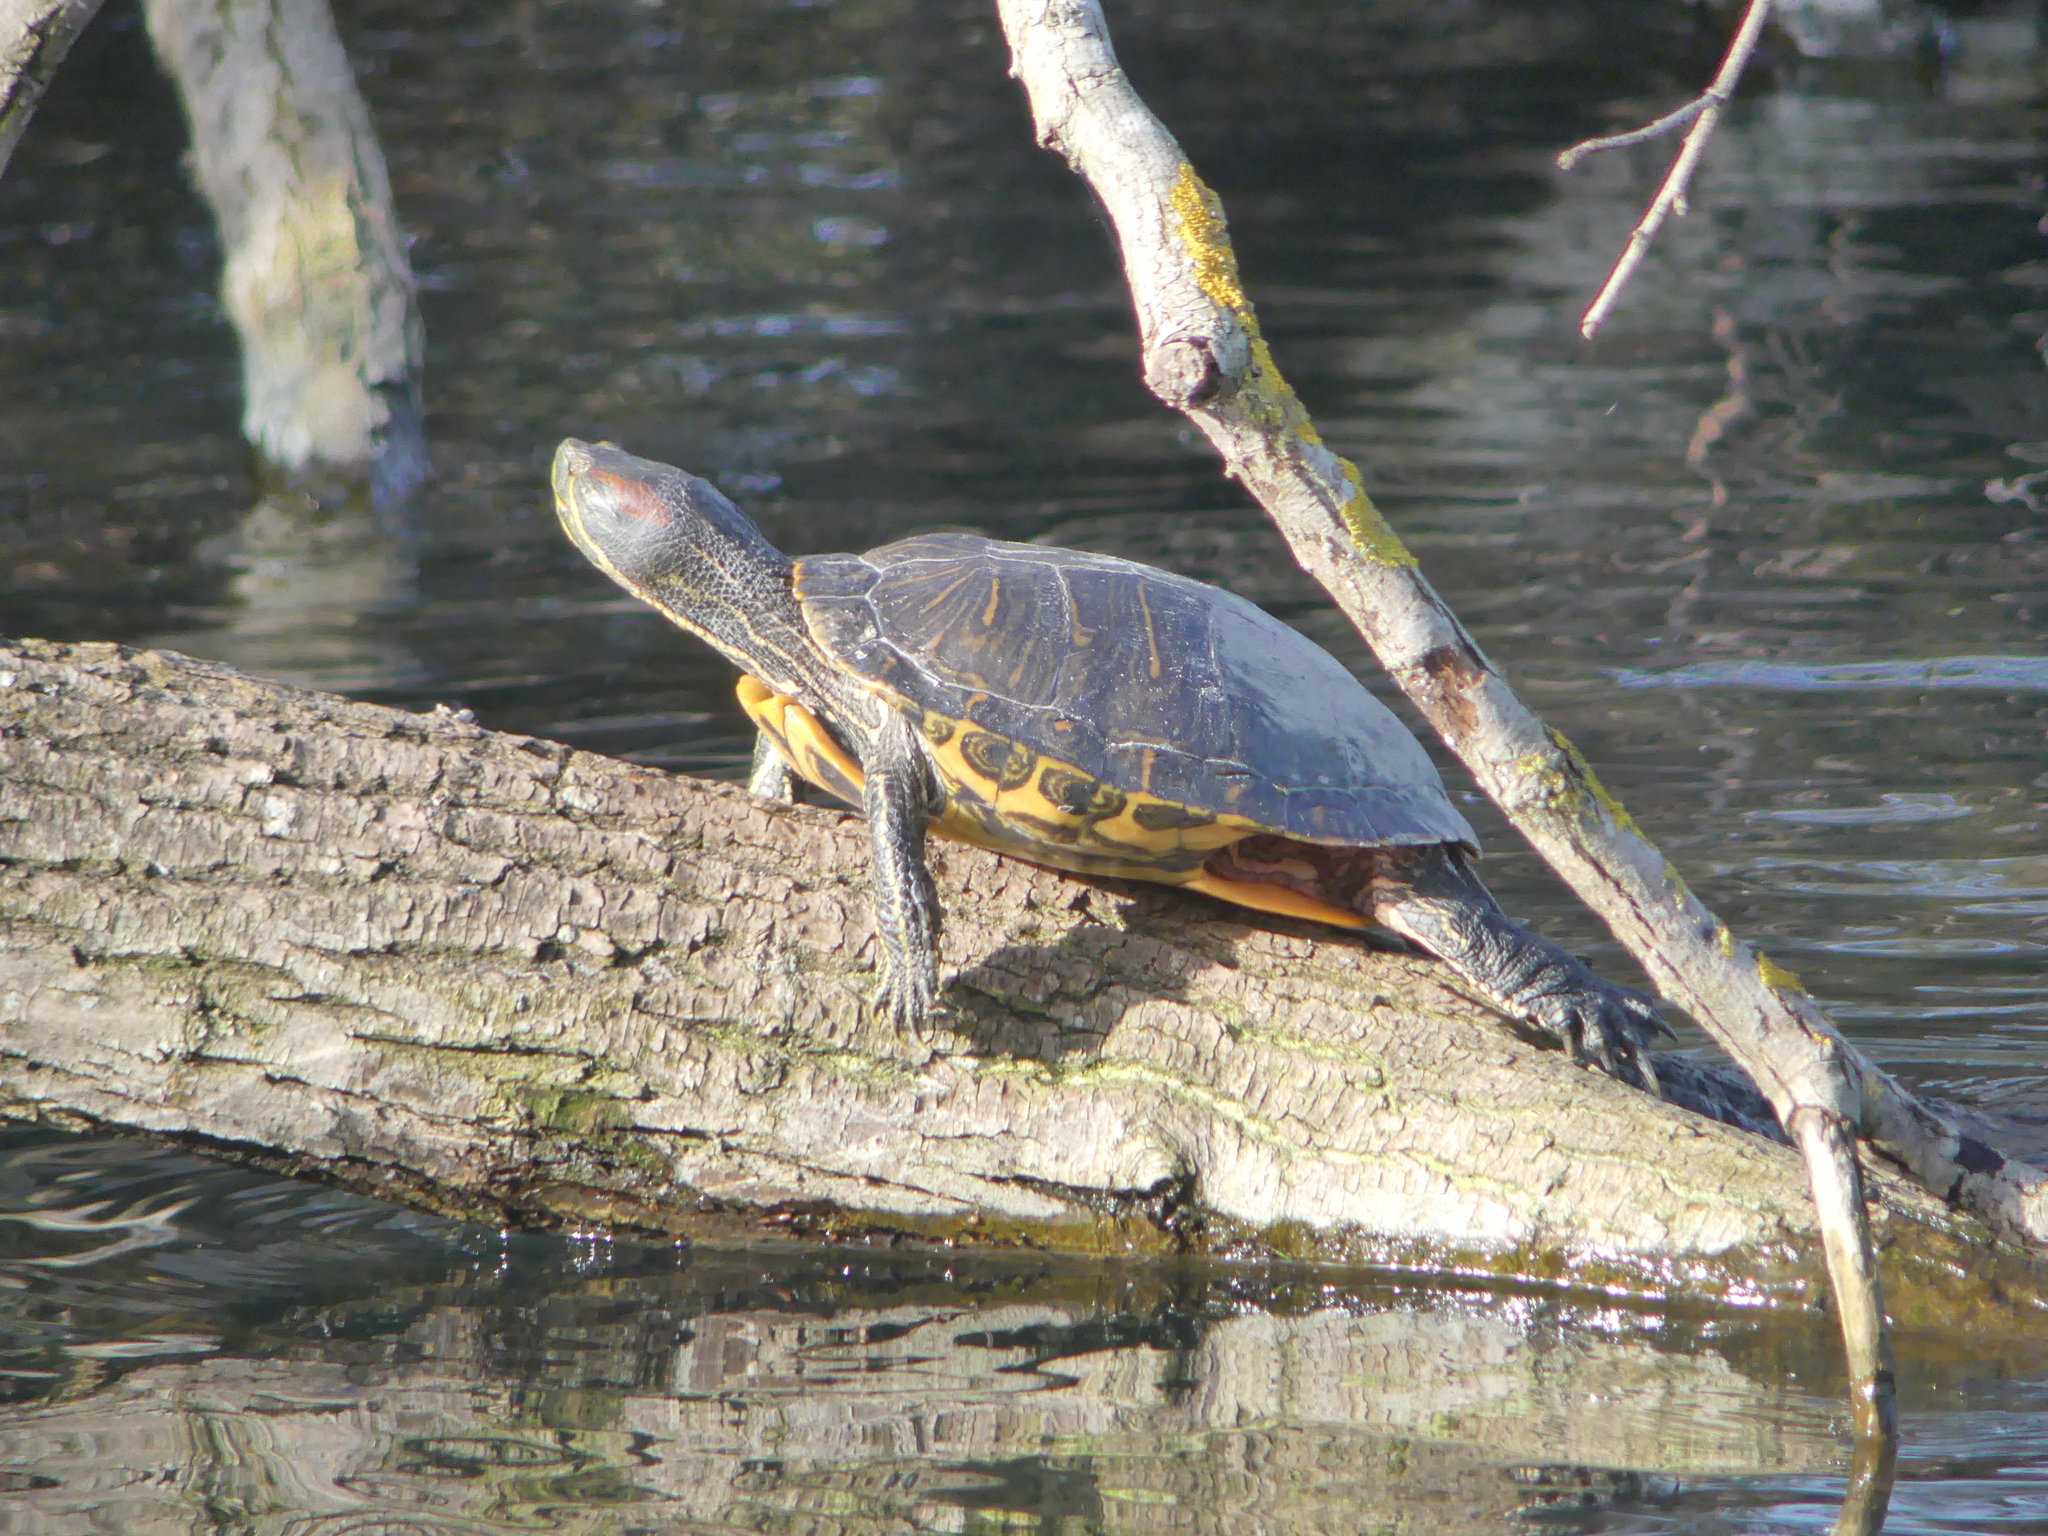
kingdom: Animalia
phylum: Chordata
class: Testudines
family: Emydidae
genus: Trachemys
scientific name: Trachemys scripta
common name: Slider
